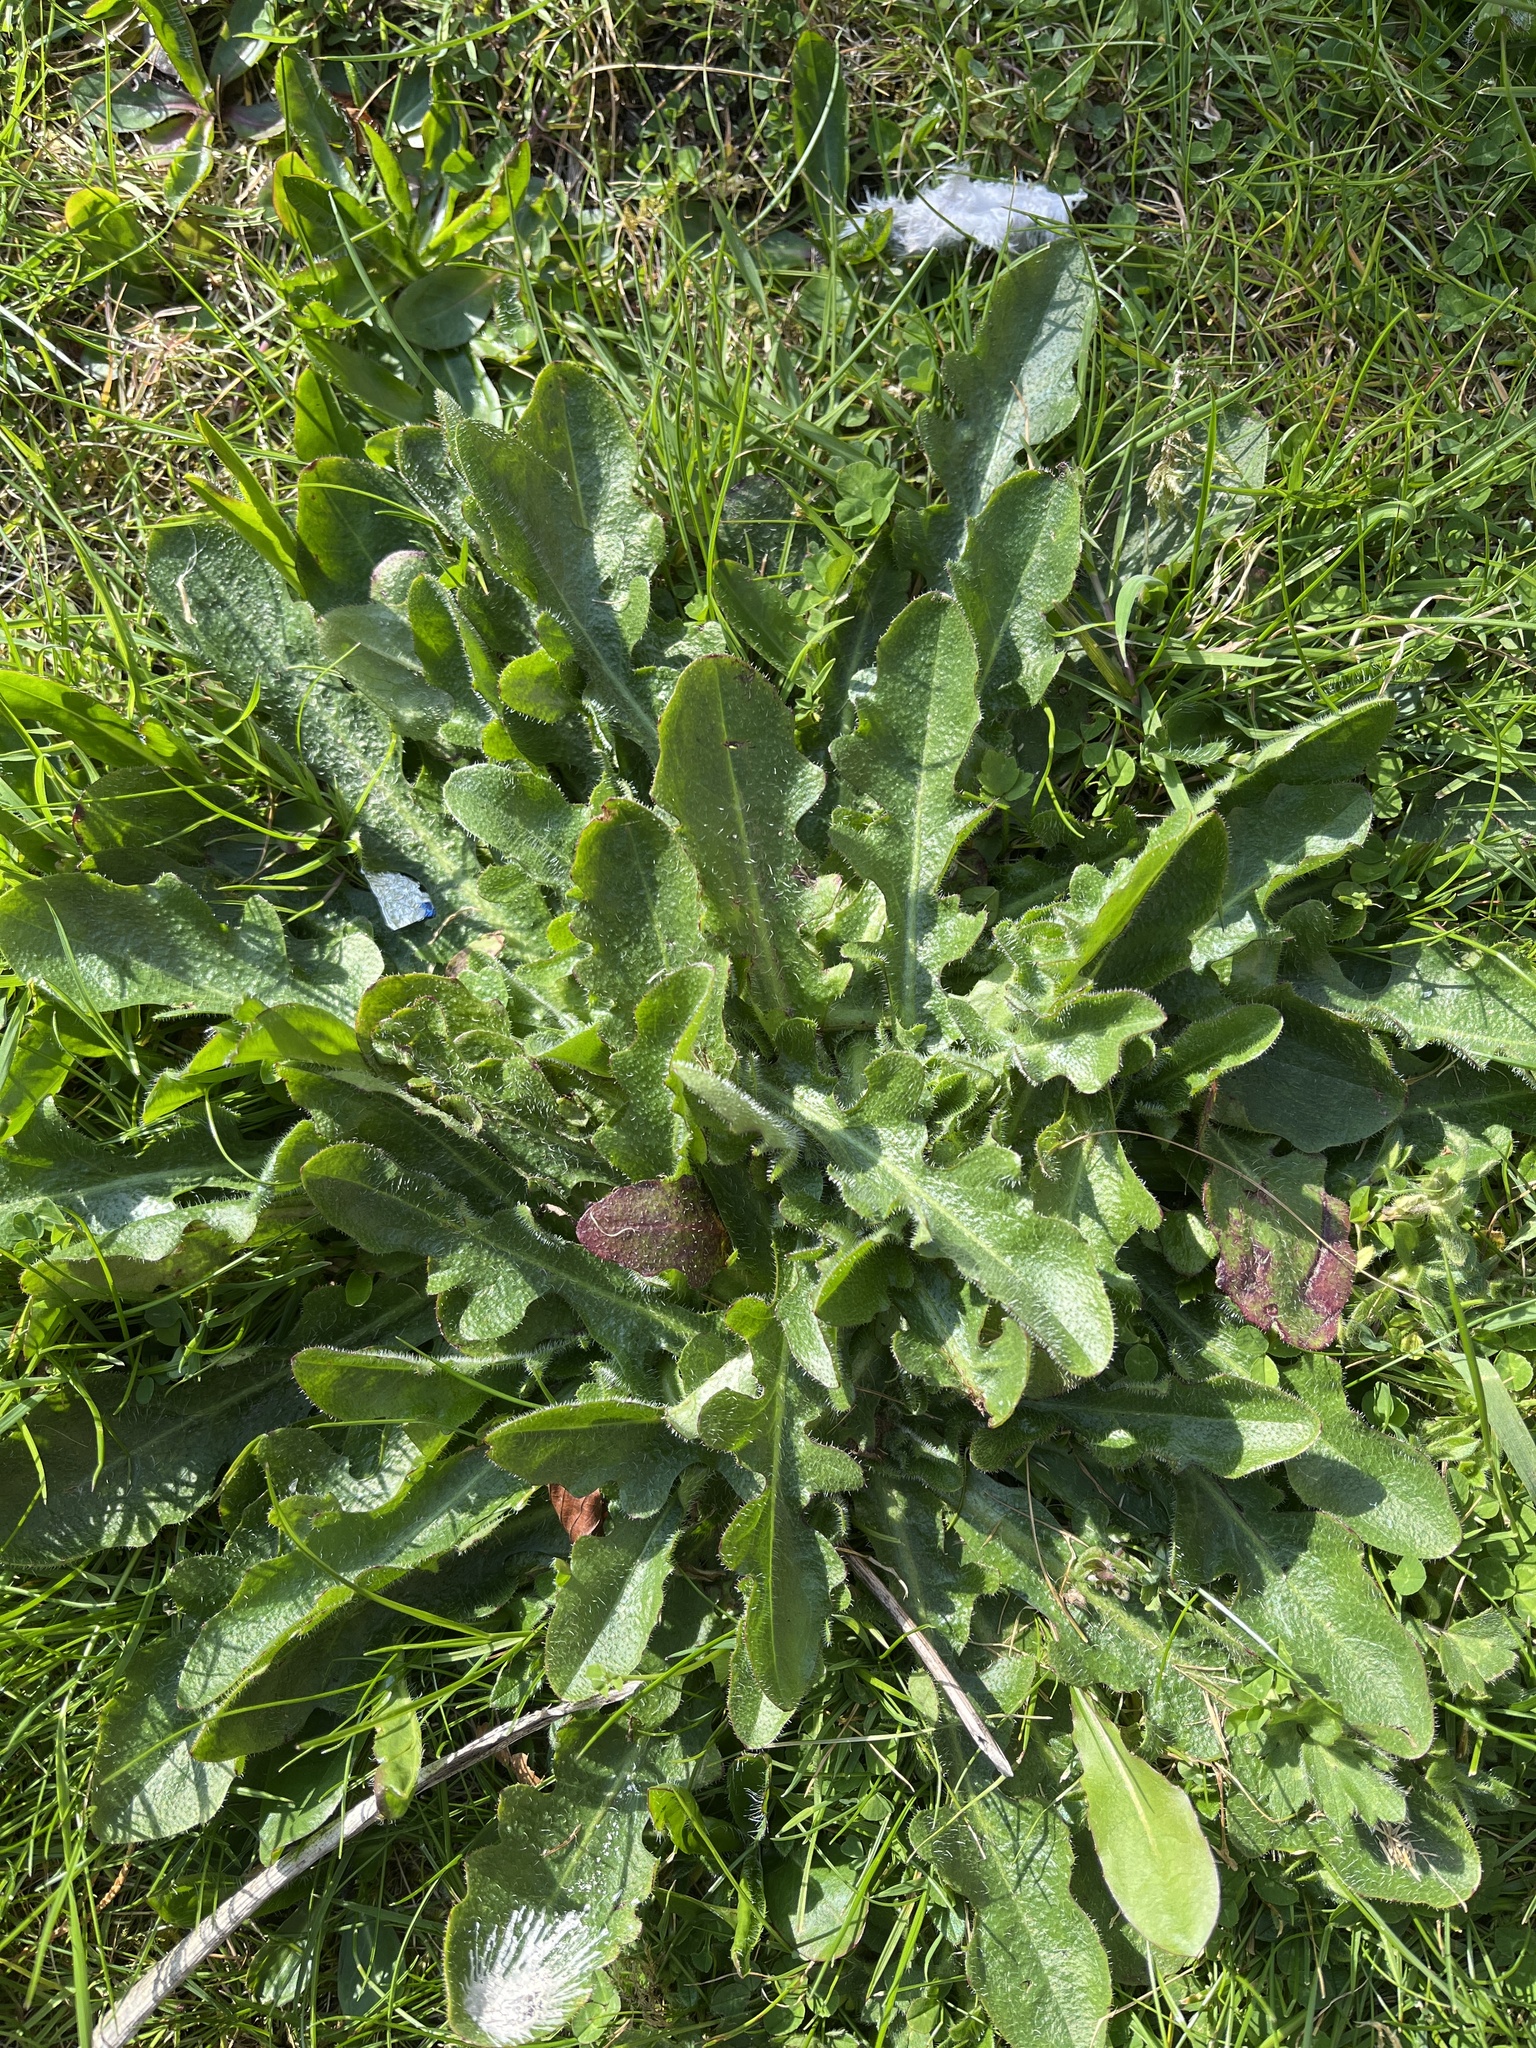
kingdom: Plantae
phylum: Tracheophyta
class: Magnoliopsida
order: Asterales
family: Asteraceae
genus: Hypochaeris
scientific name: Hypochaeris radicata
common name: Flatweed
